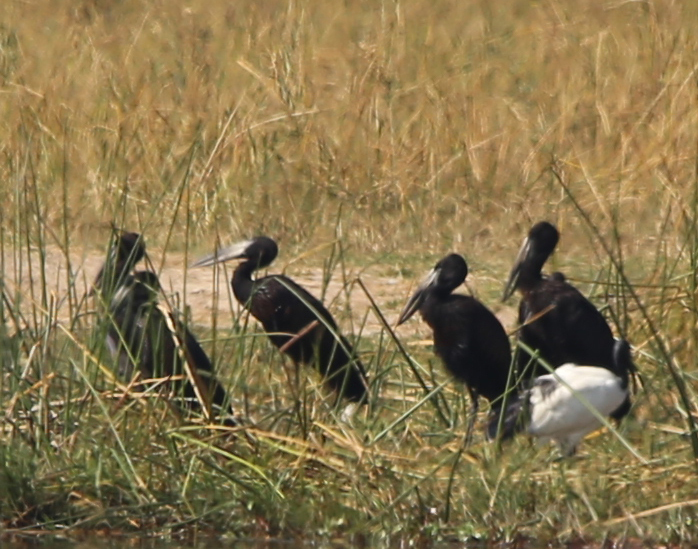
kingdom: Animalia
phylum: Chordata
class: Aves
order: Ciconiiformes
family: Ciconiidae
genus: Anastomus
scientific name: Anastomus lamelligerus
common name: African openbill
